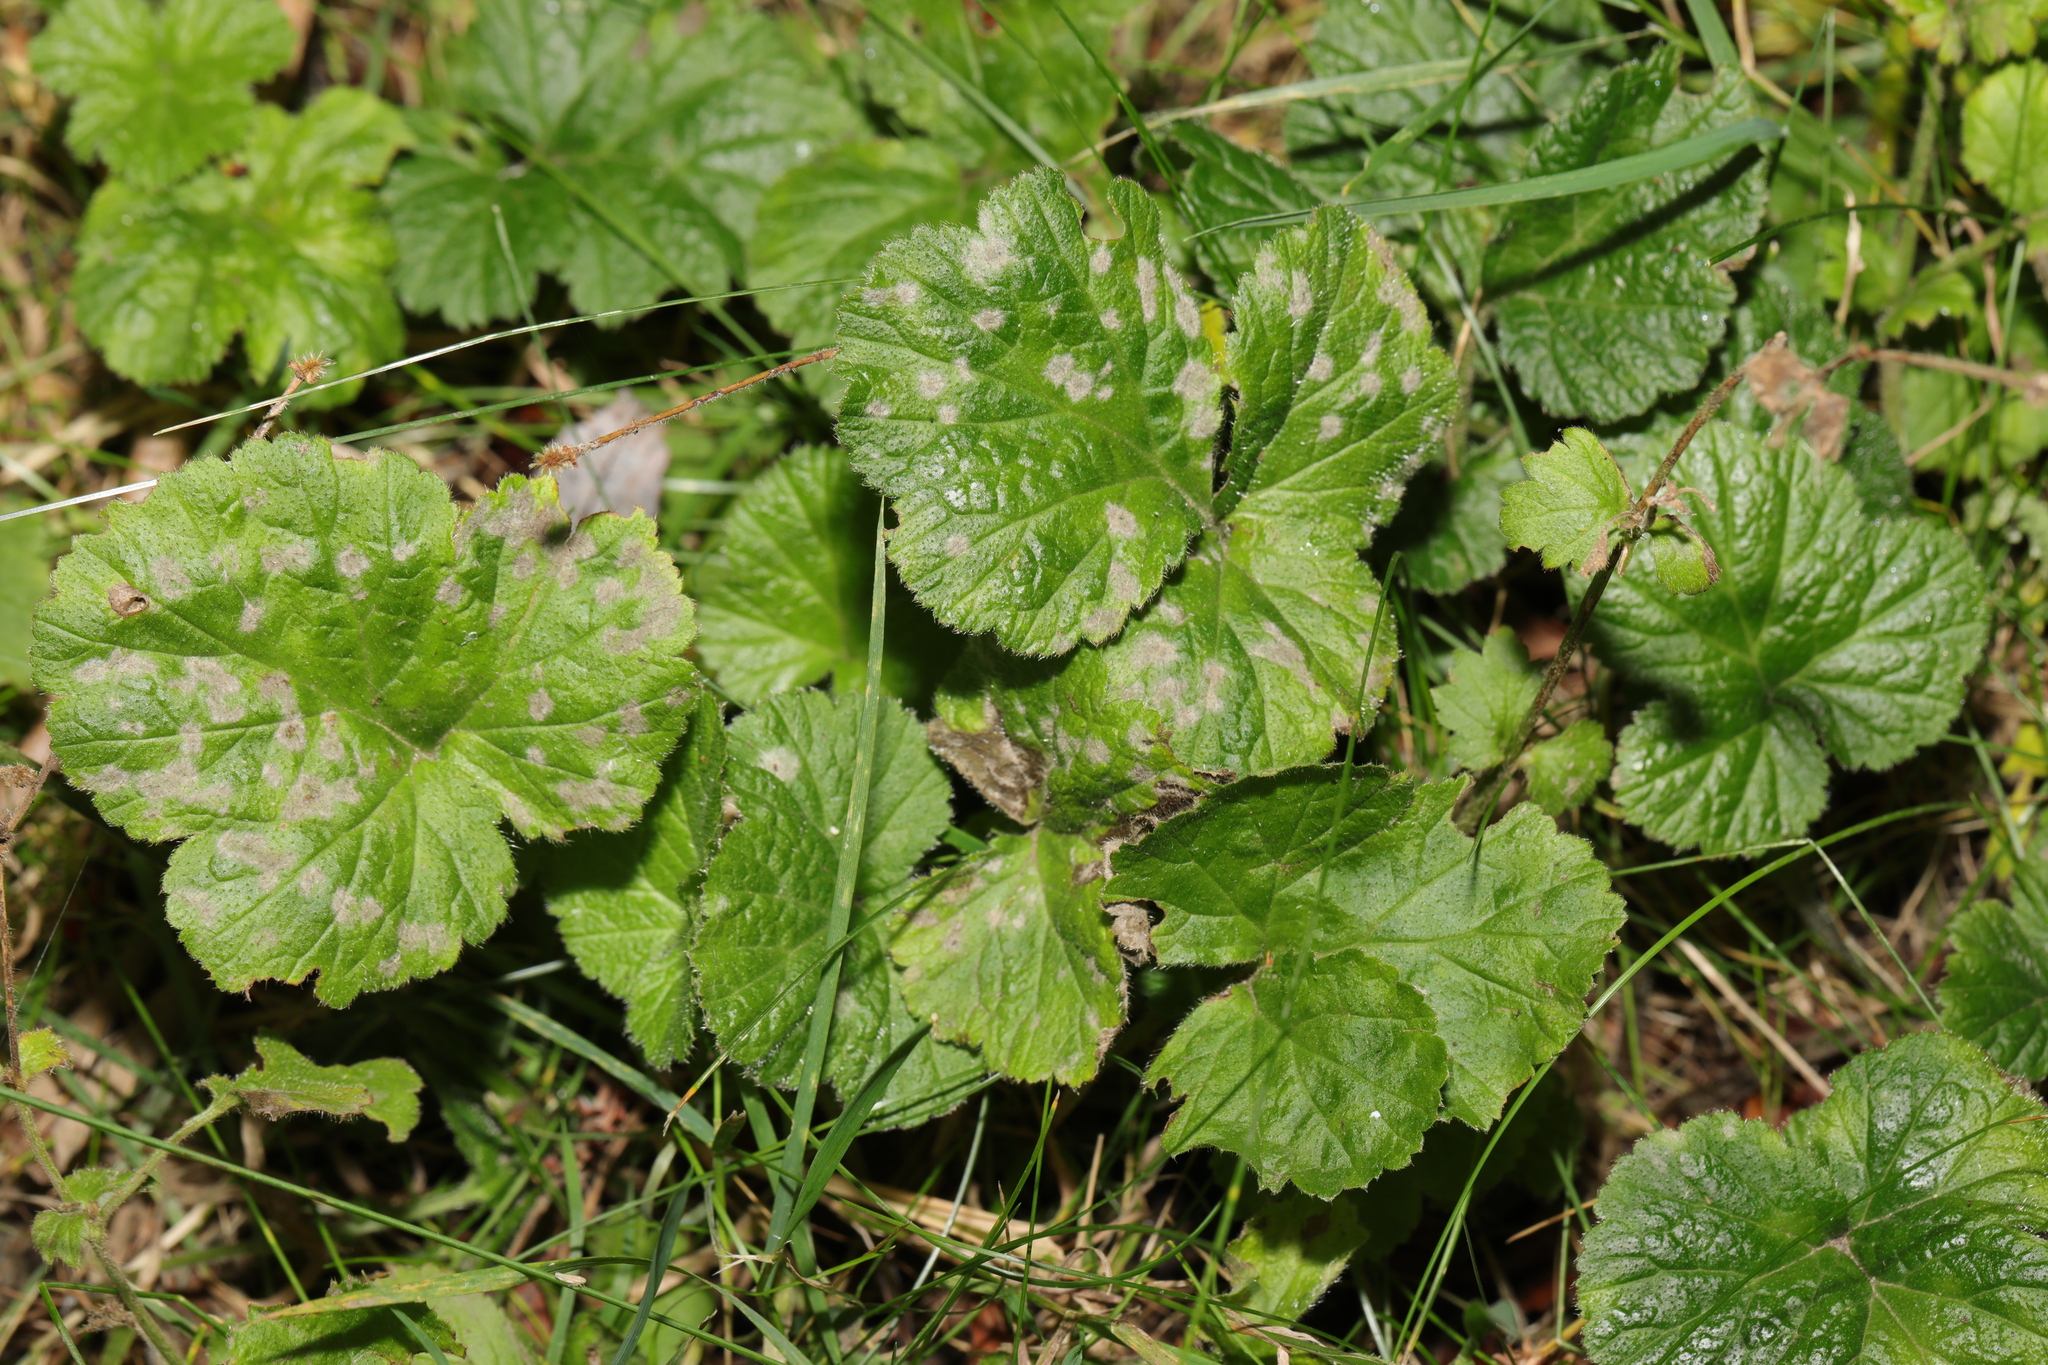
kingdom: Plantae
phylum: Tracheophyta
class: Magnoliopsida
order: Rosales
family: Rosaceae
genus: Geum
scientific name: Geum urbanum
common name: Wood avens
